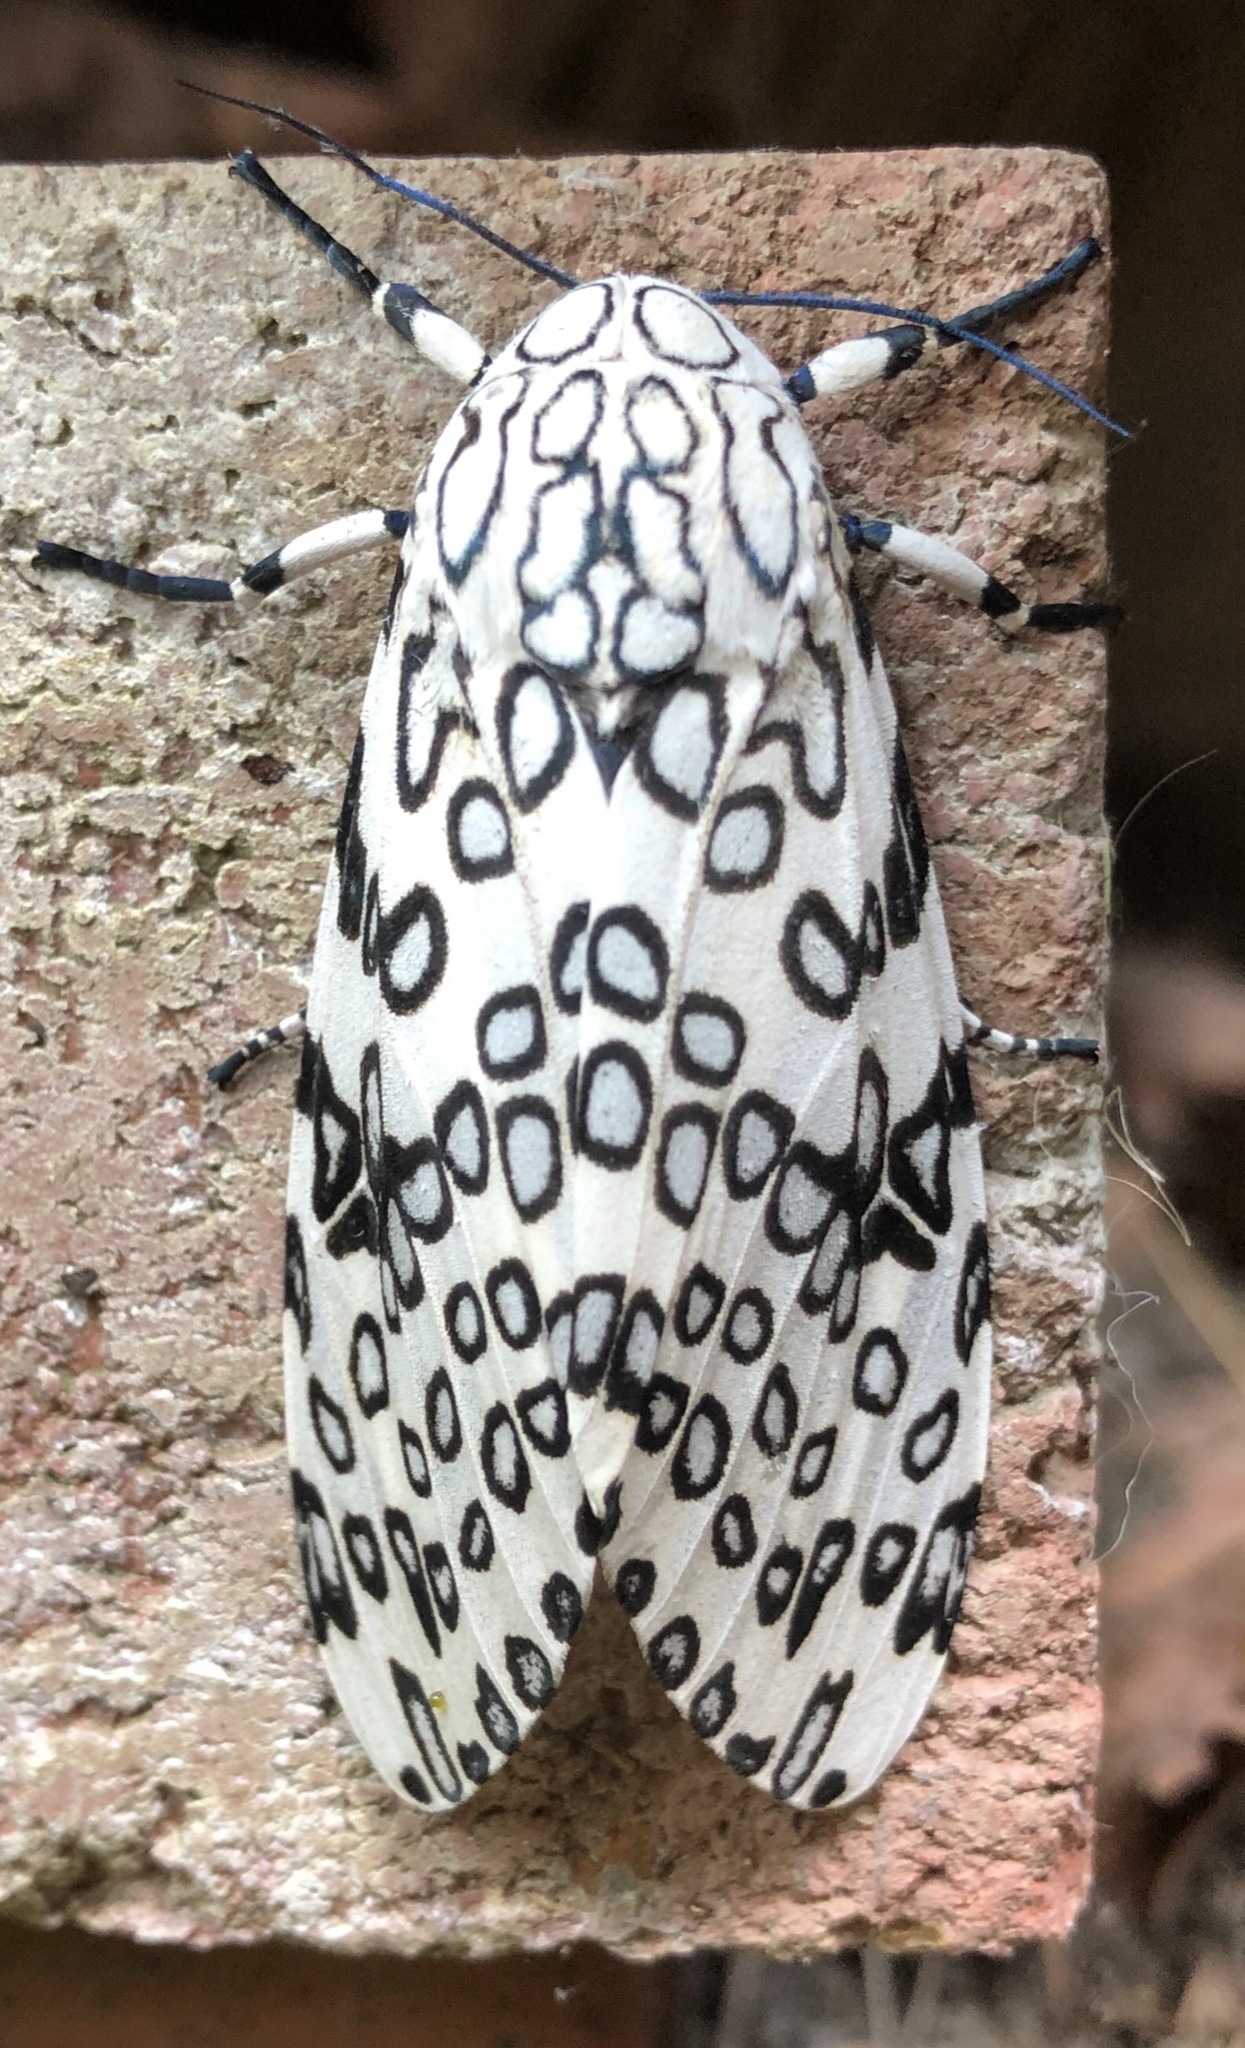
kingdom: Animalia
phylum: Arthropoda
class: Insecta
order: Lepidoptera
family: Erebidae
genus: Hypercompe
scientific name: Hypercompe scribonia
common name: Giant leopard moth
